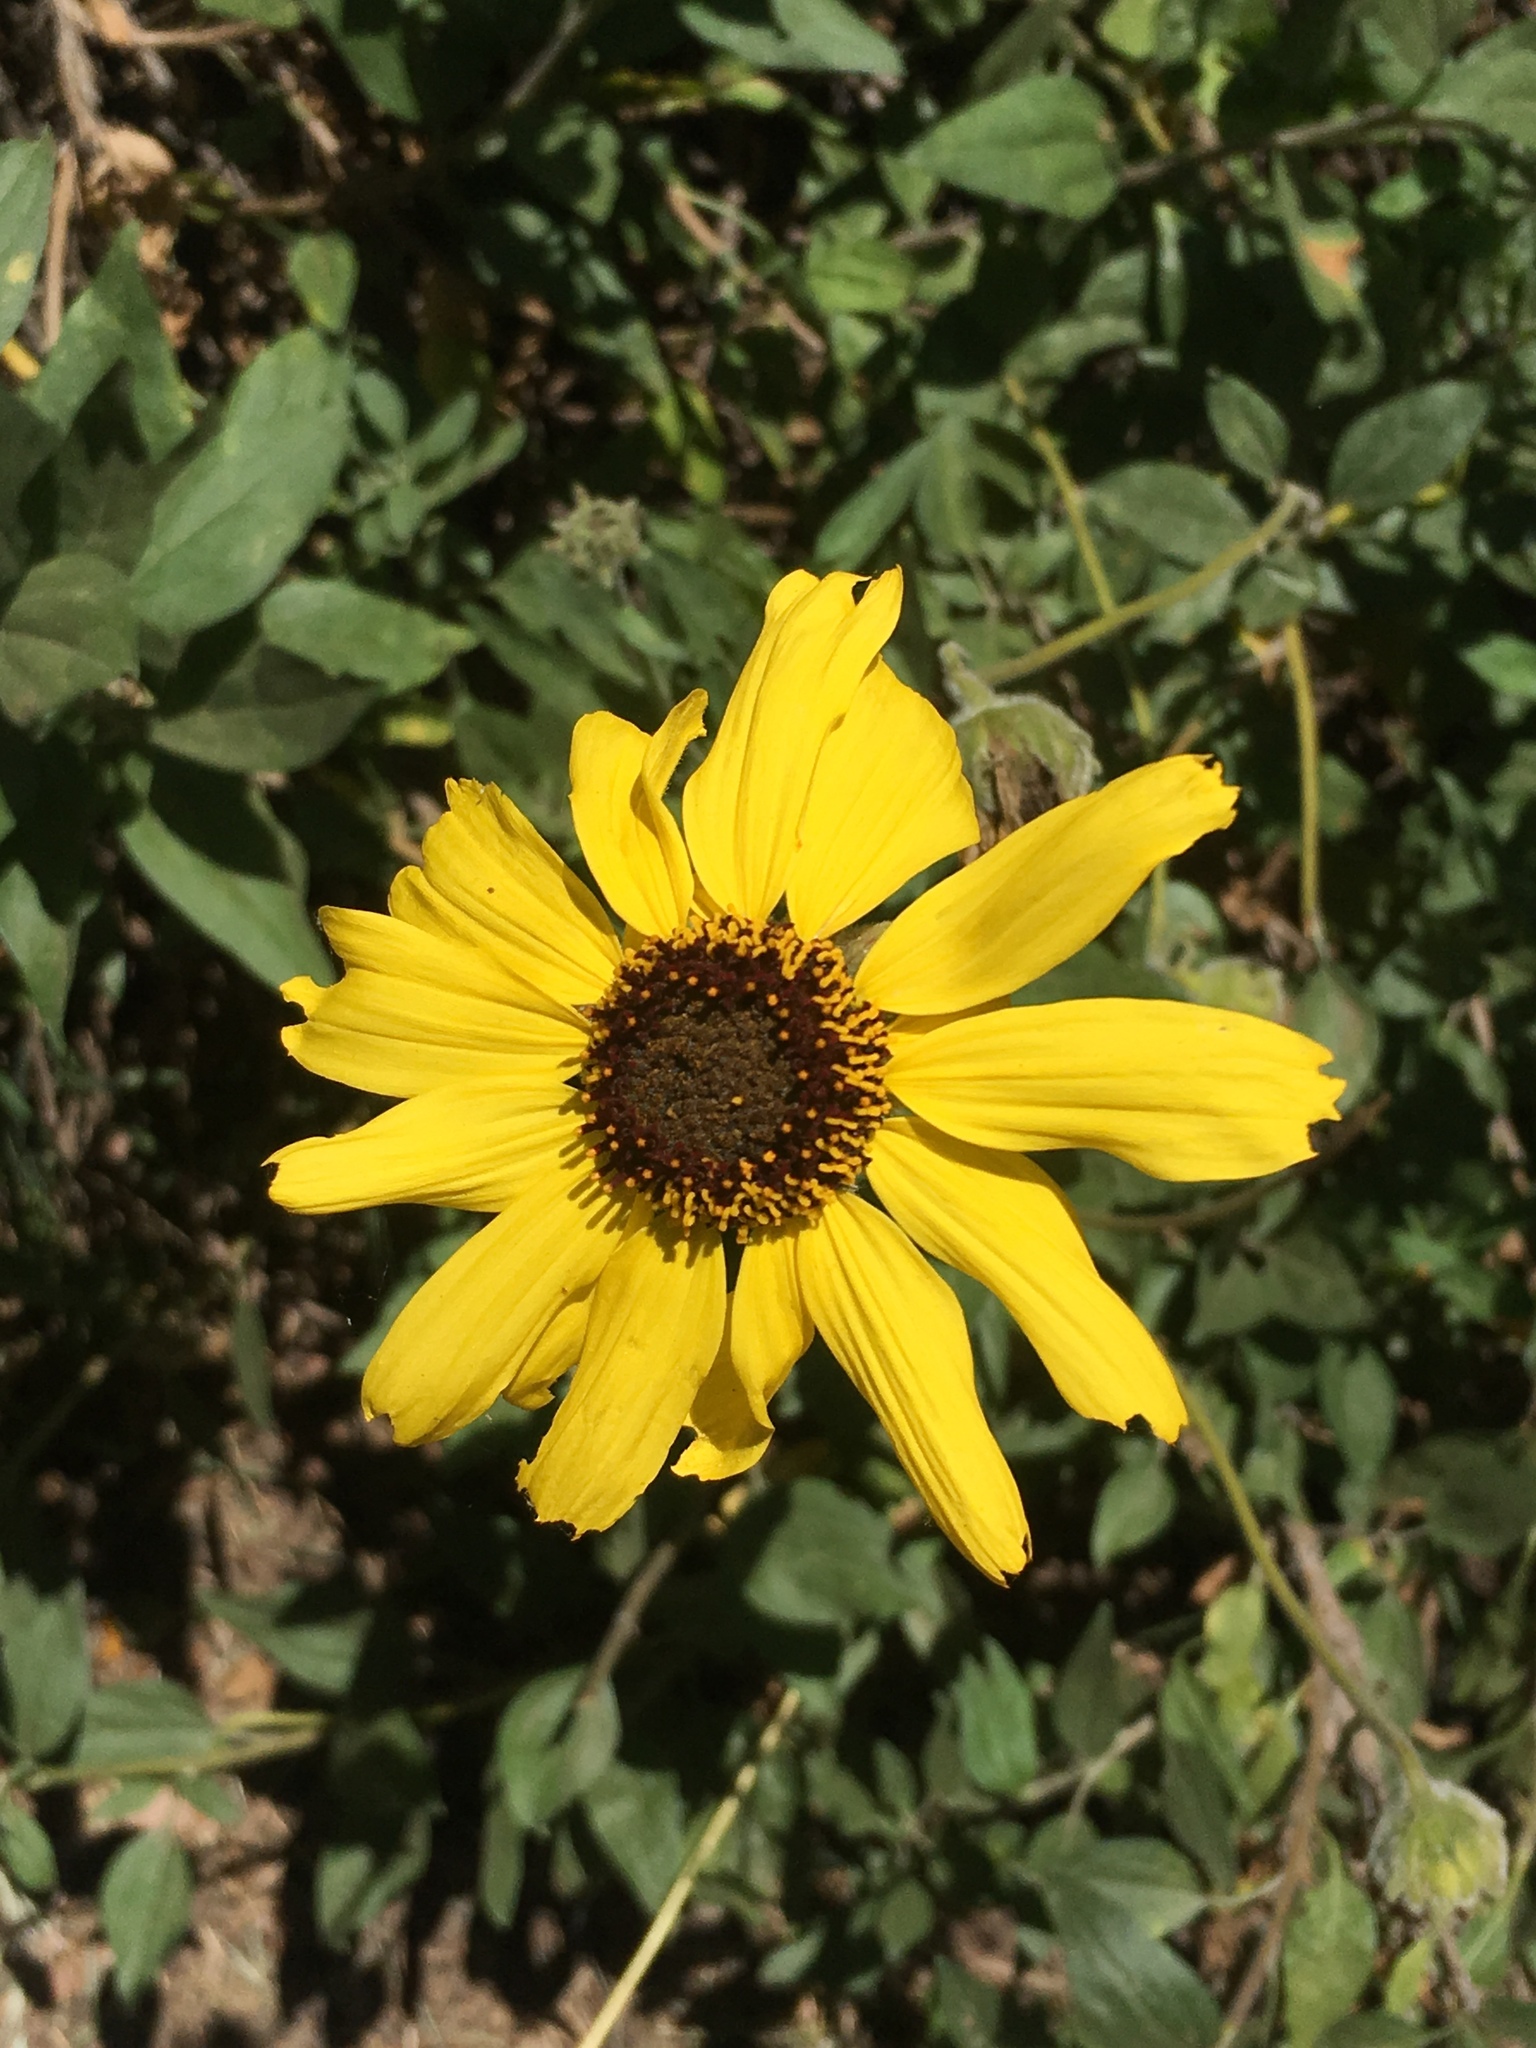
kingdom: Plantae
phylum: Tracheophyta
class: Magnoliopsida
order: Asterales
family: Asteraceae
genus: Encelia
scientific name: Encelia californica
